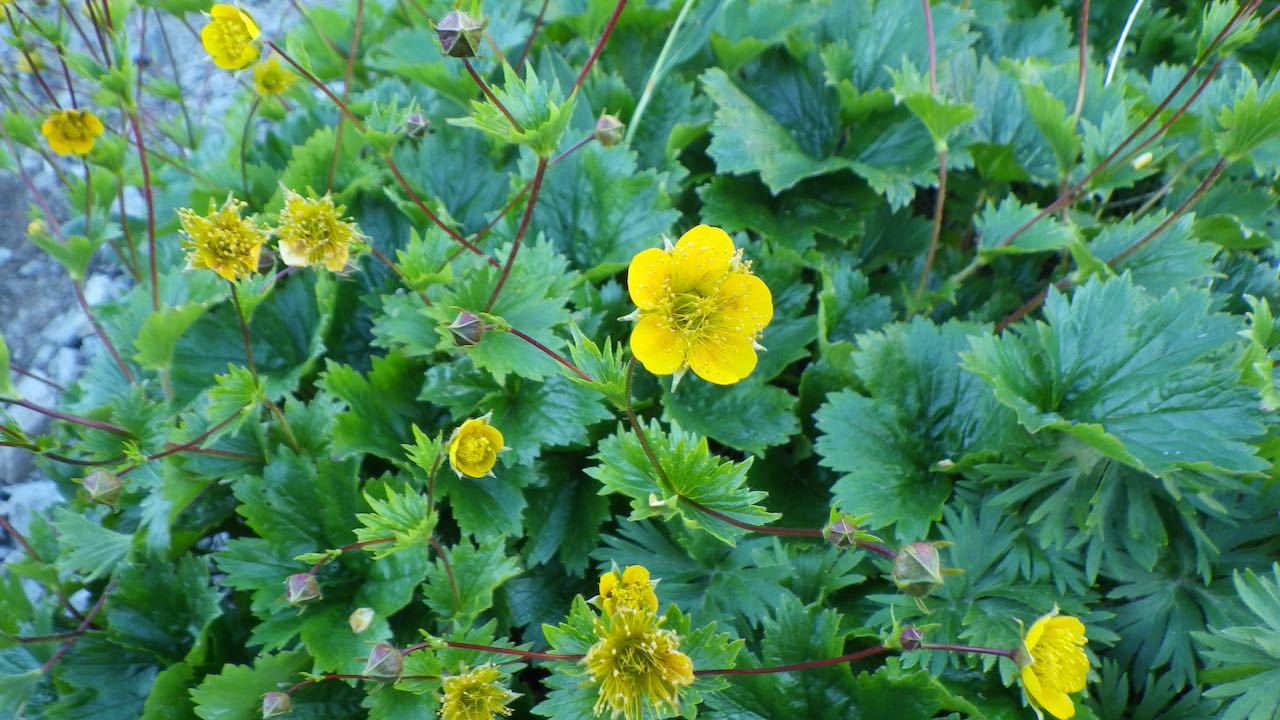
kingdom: Plantae
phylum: Tracheophyta
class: Magnoliopsida
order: Rosales
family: Rosaceae
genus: Geum
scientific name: Geum calthifolium
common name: Caltha-leaved avens
